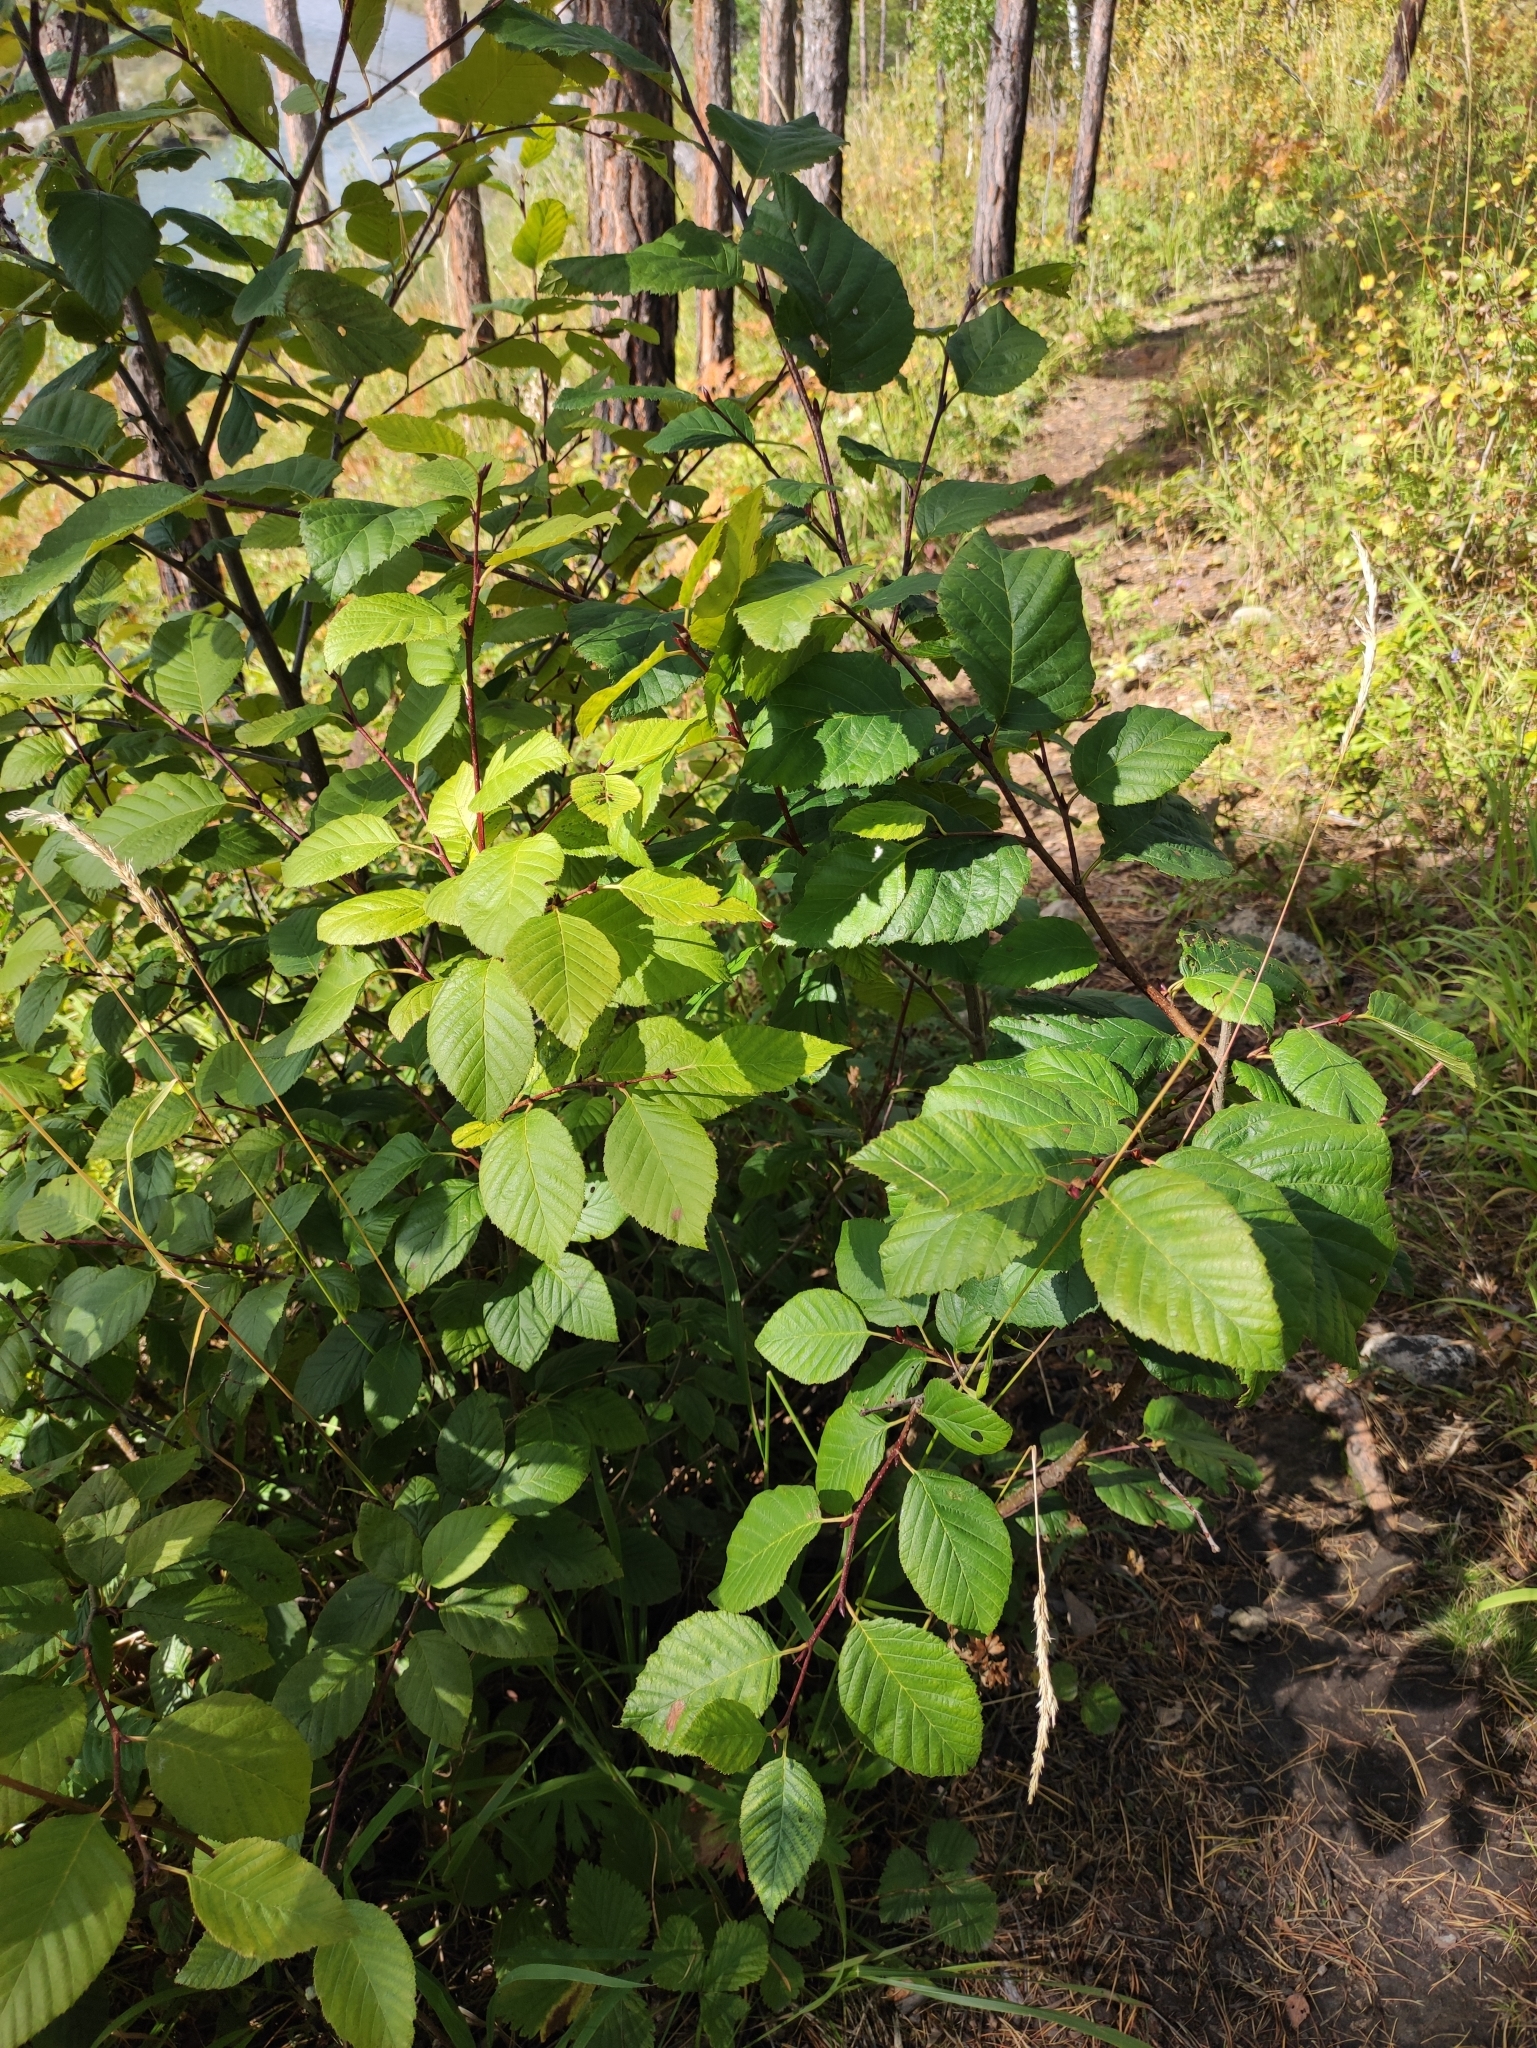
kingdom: Plantae
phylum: Tracheophyta
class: Magnoliopsida
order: Fagales
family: Betulaceae
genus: Alnus
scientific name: Alnus alnobetula
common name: Green alder
